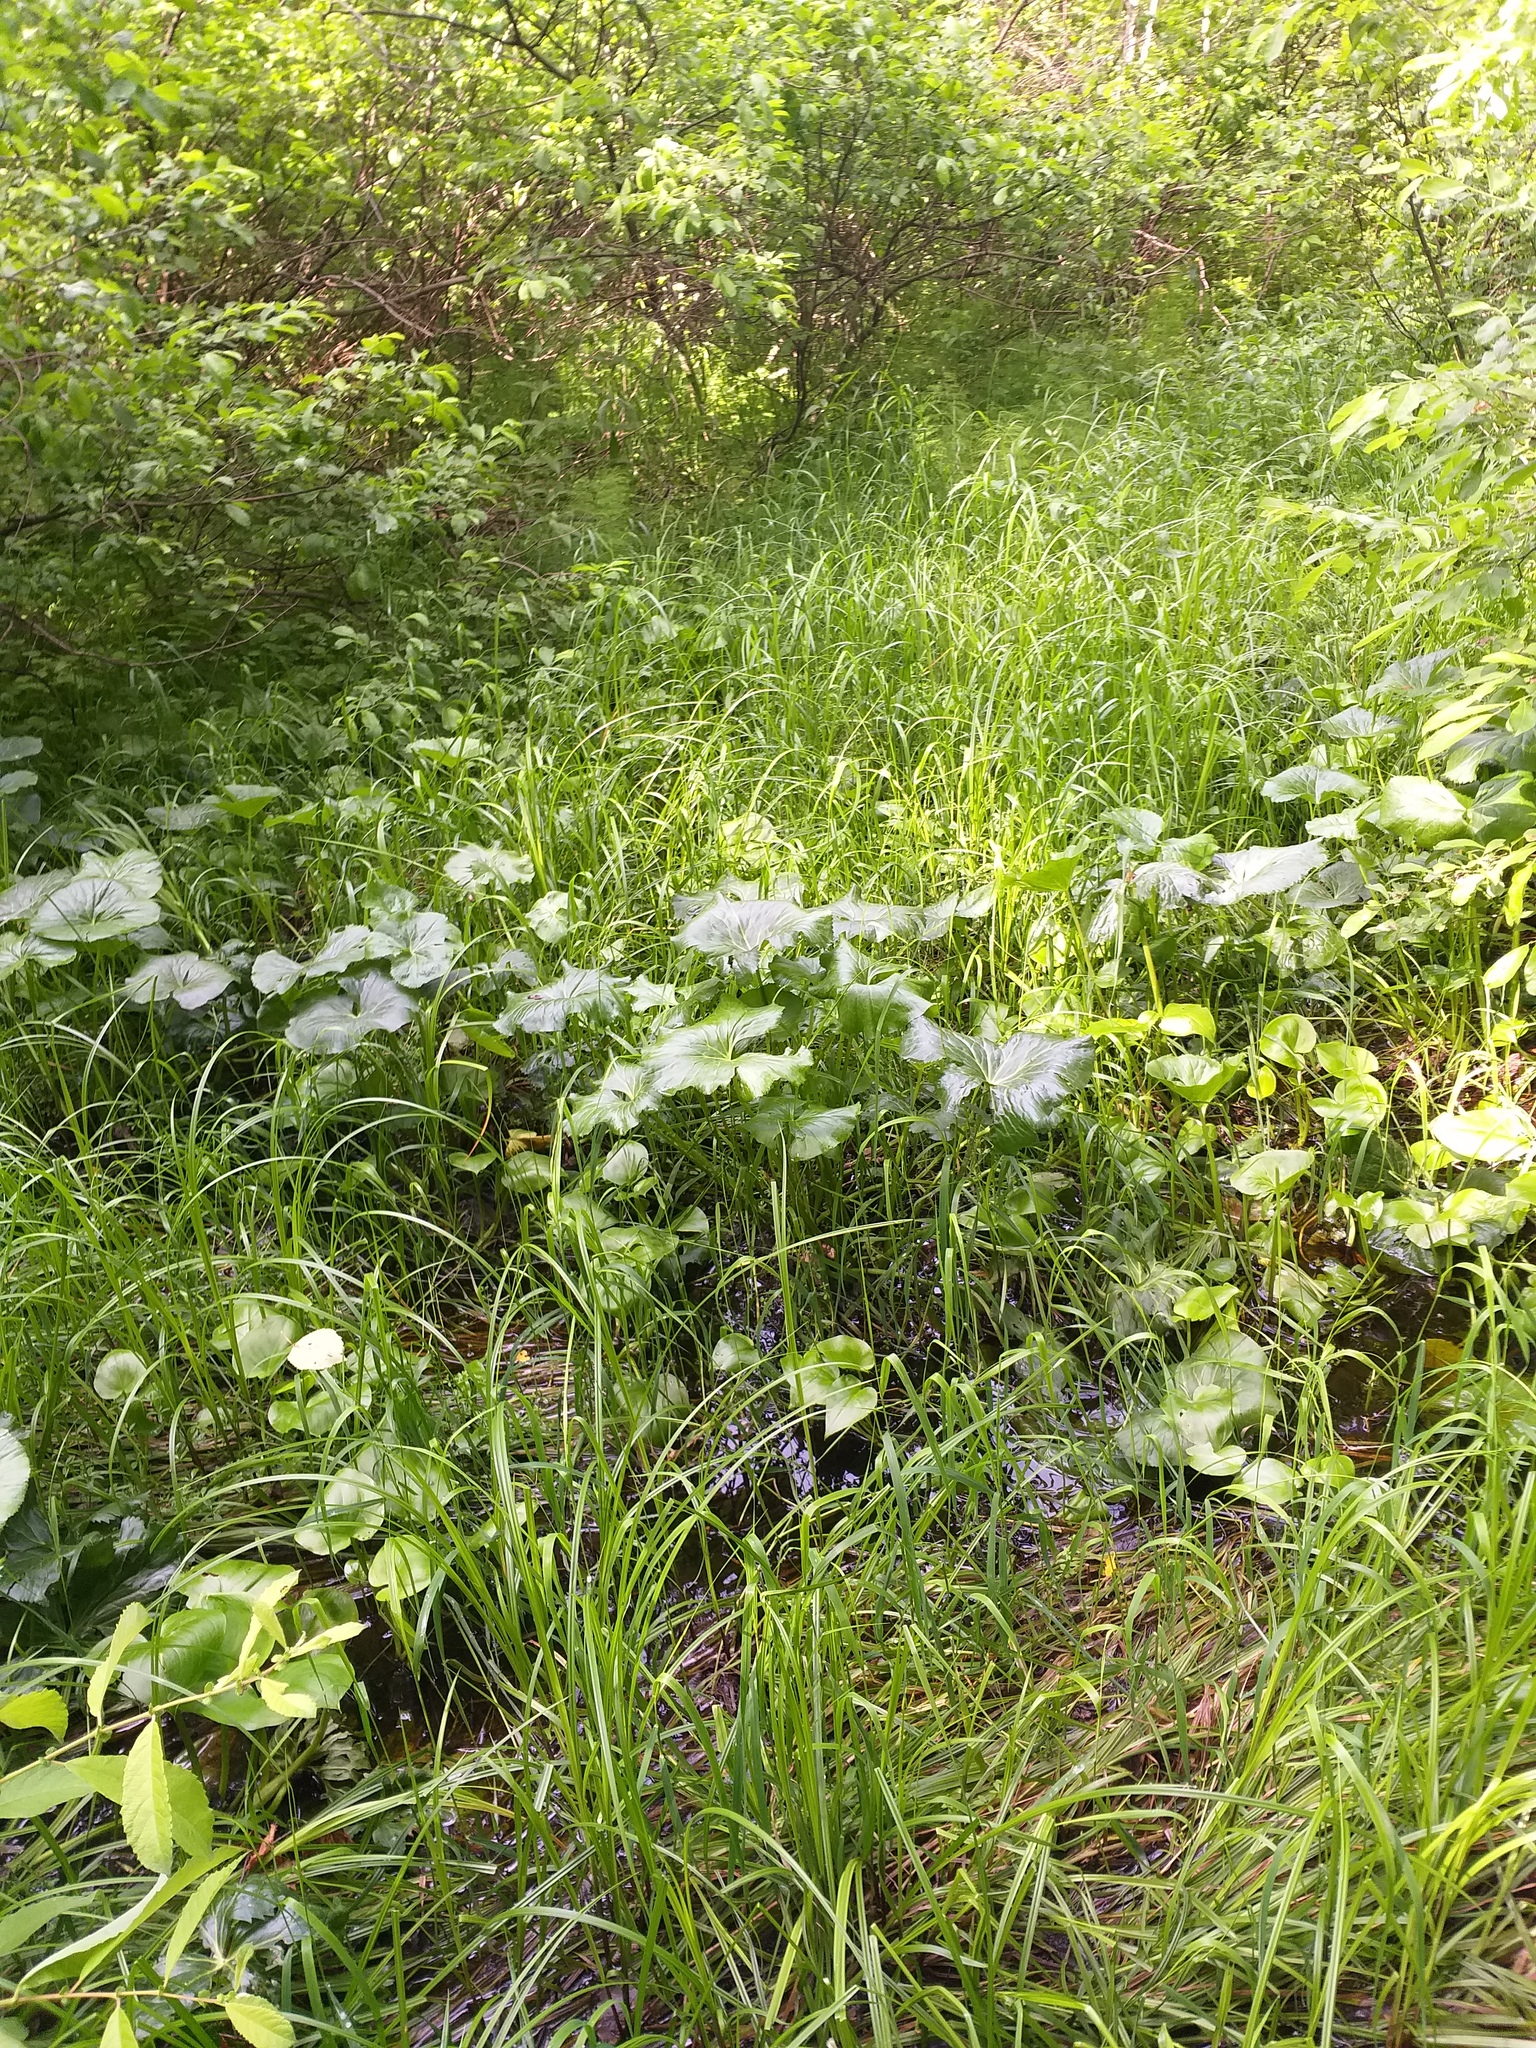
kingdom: Plantae
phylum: Tracheophyta
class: Magnoliopsida
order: Ranunculales
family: Ranunculaceae
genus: Caltha
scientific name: Caltha palustris
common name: Marsh marigold
